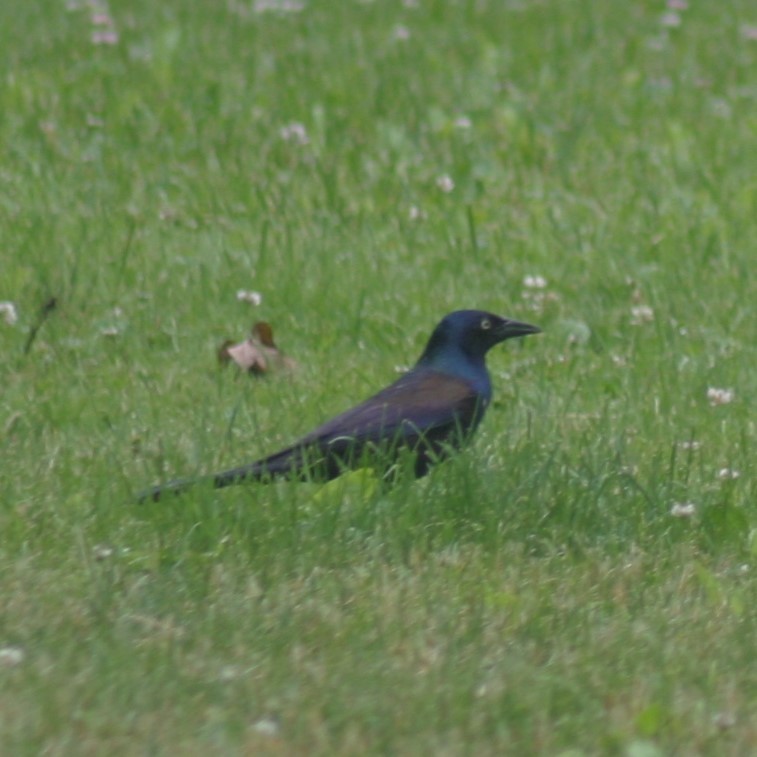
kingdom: Animalia
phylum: Chordata
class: Aves
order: Passeriformes
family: Icteridae
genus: Quiscalus
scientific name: Quiscalus quiscula
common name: Common grackle
